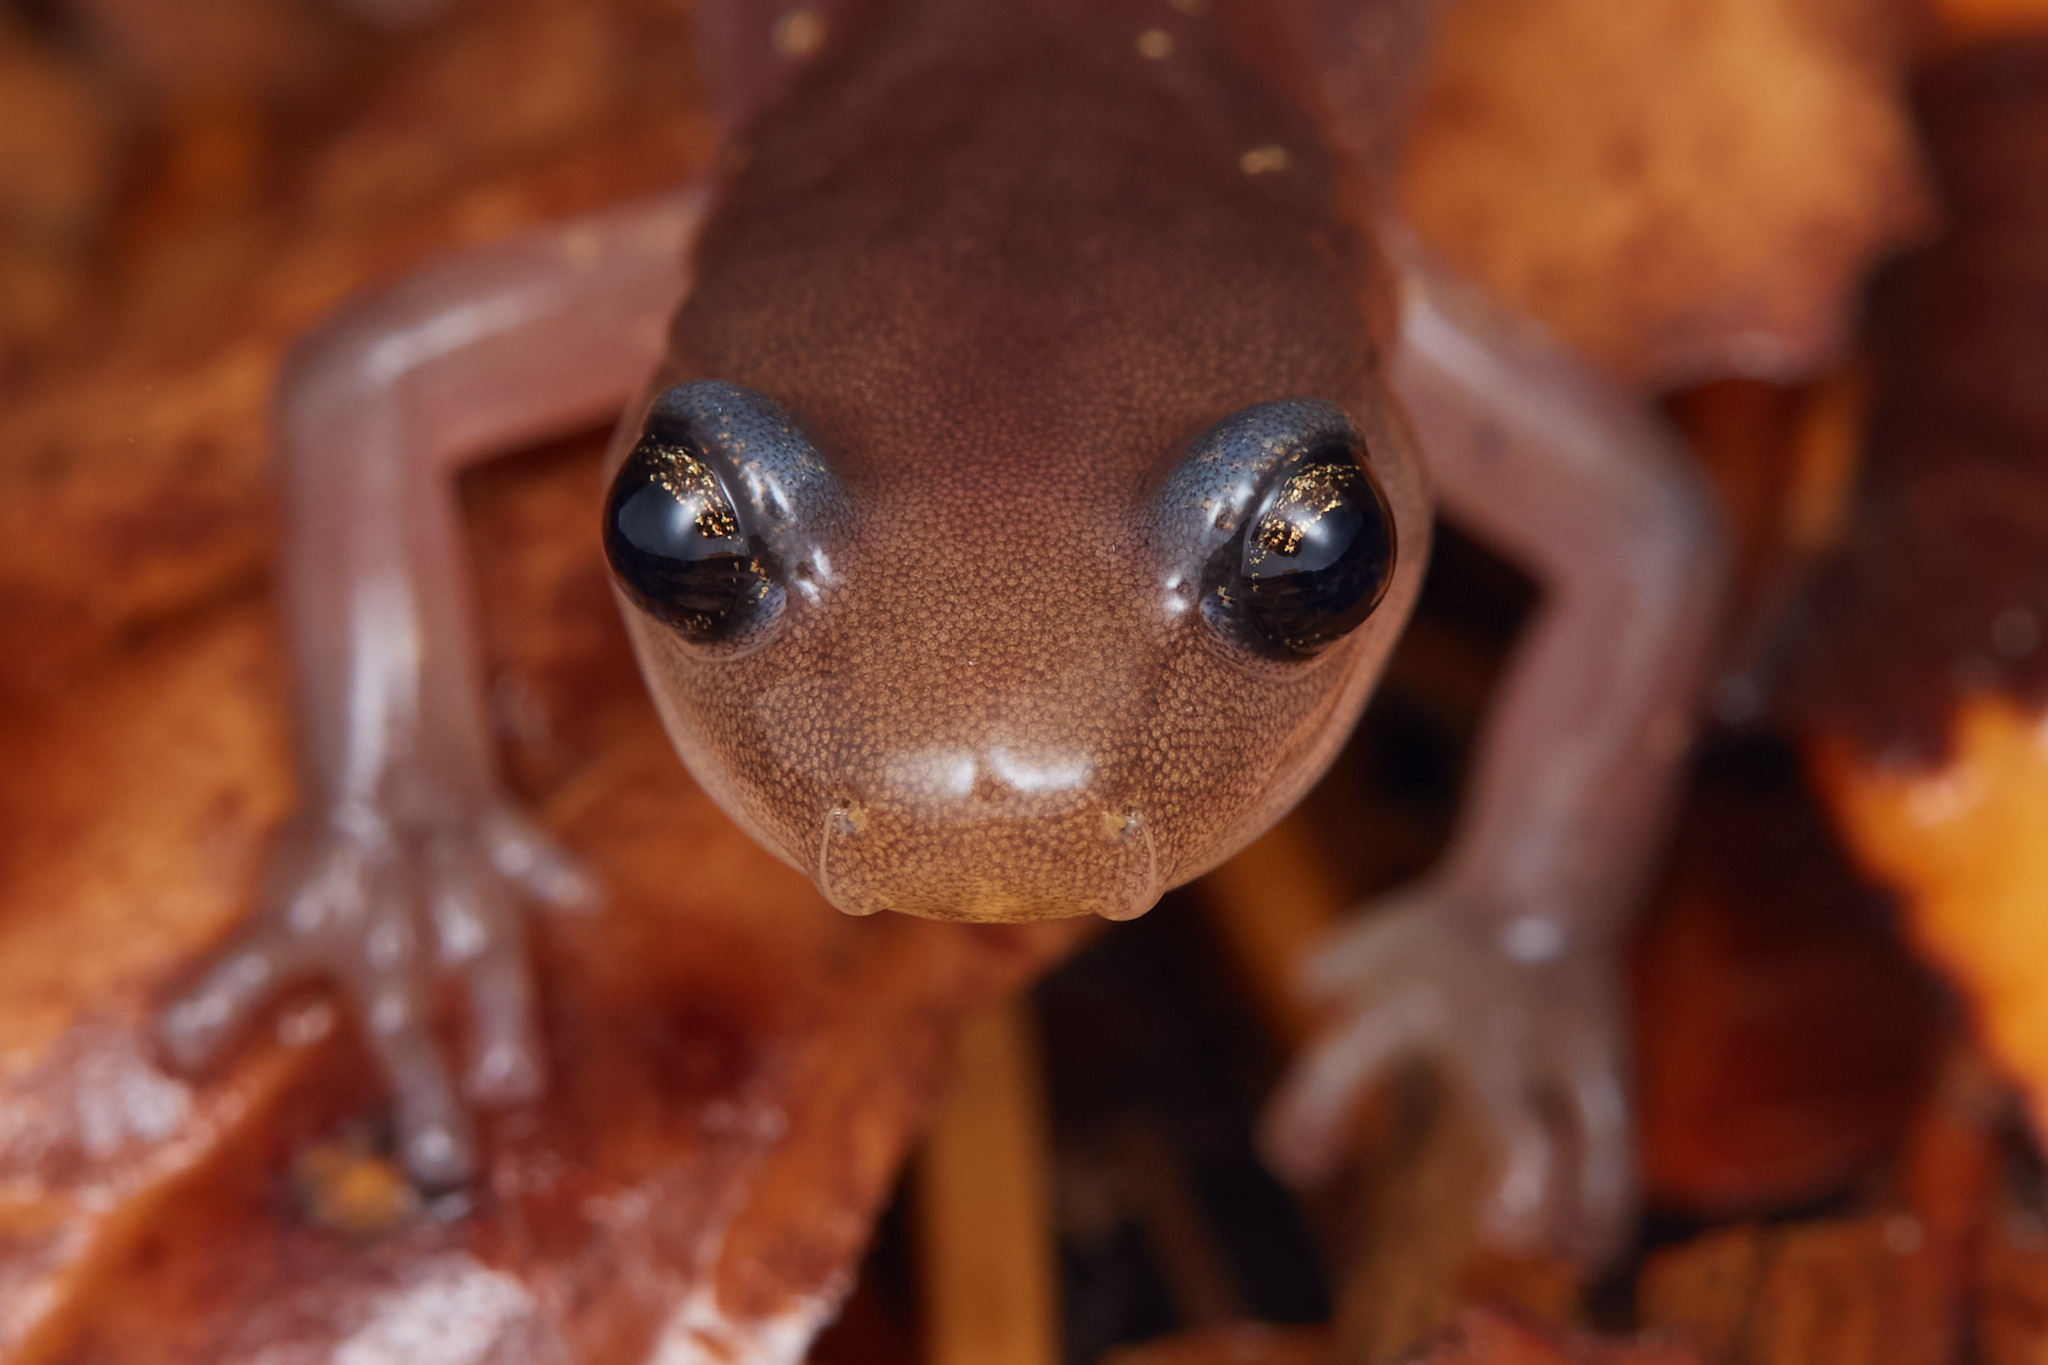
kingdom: Animalia
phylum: Chordata
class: Amphibia
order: Caudata
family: Plethodontidae
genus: Aneides
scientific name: Aneides lugubris
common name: Arboreal salamander
